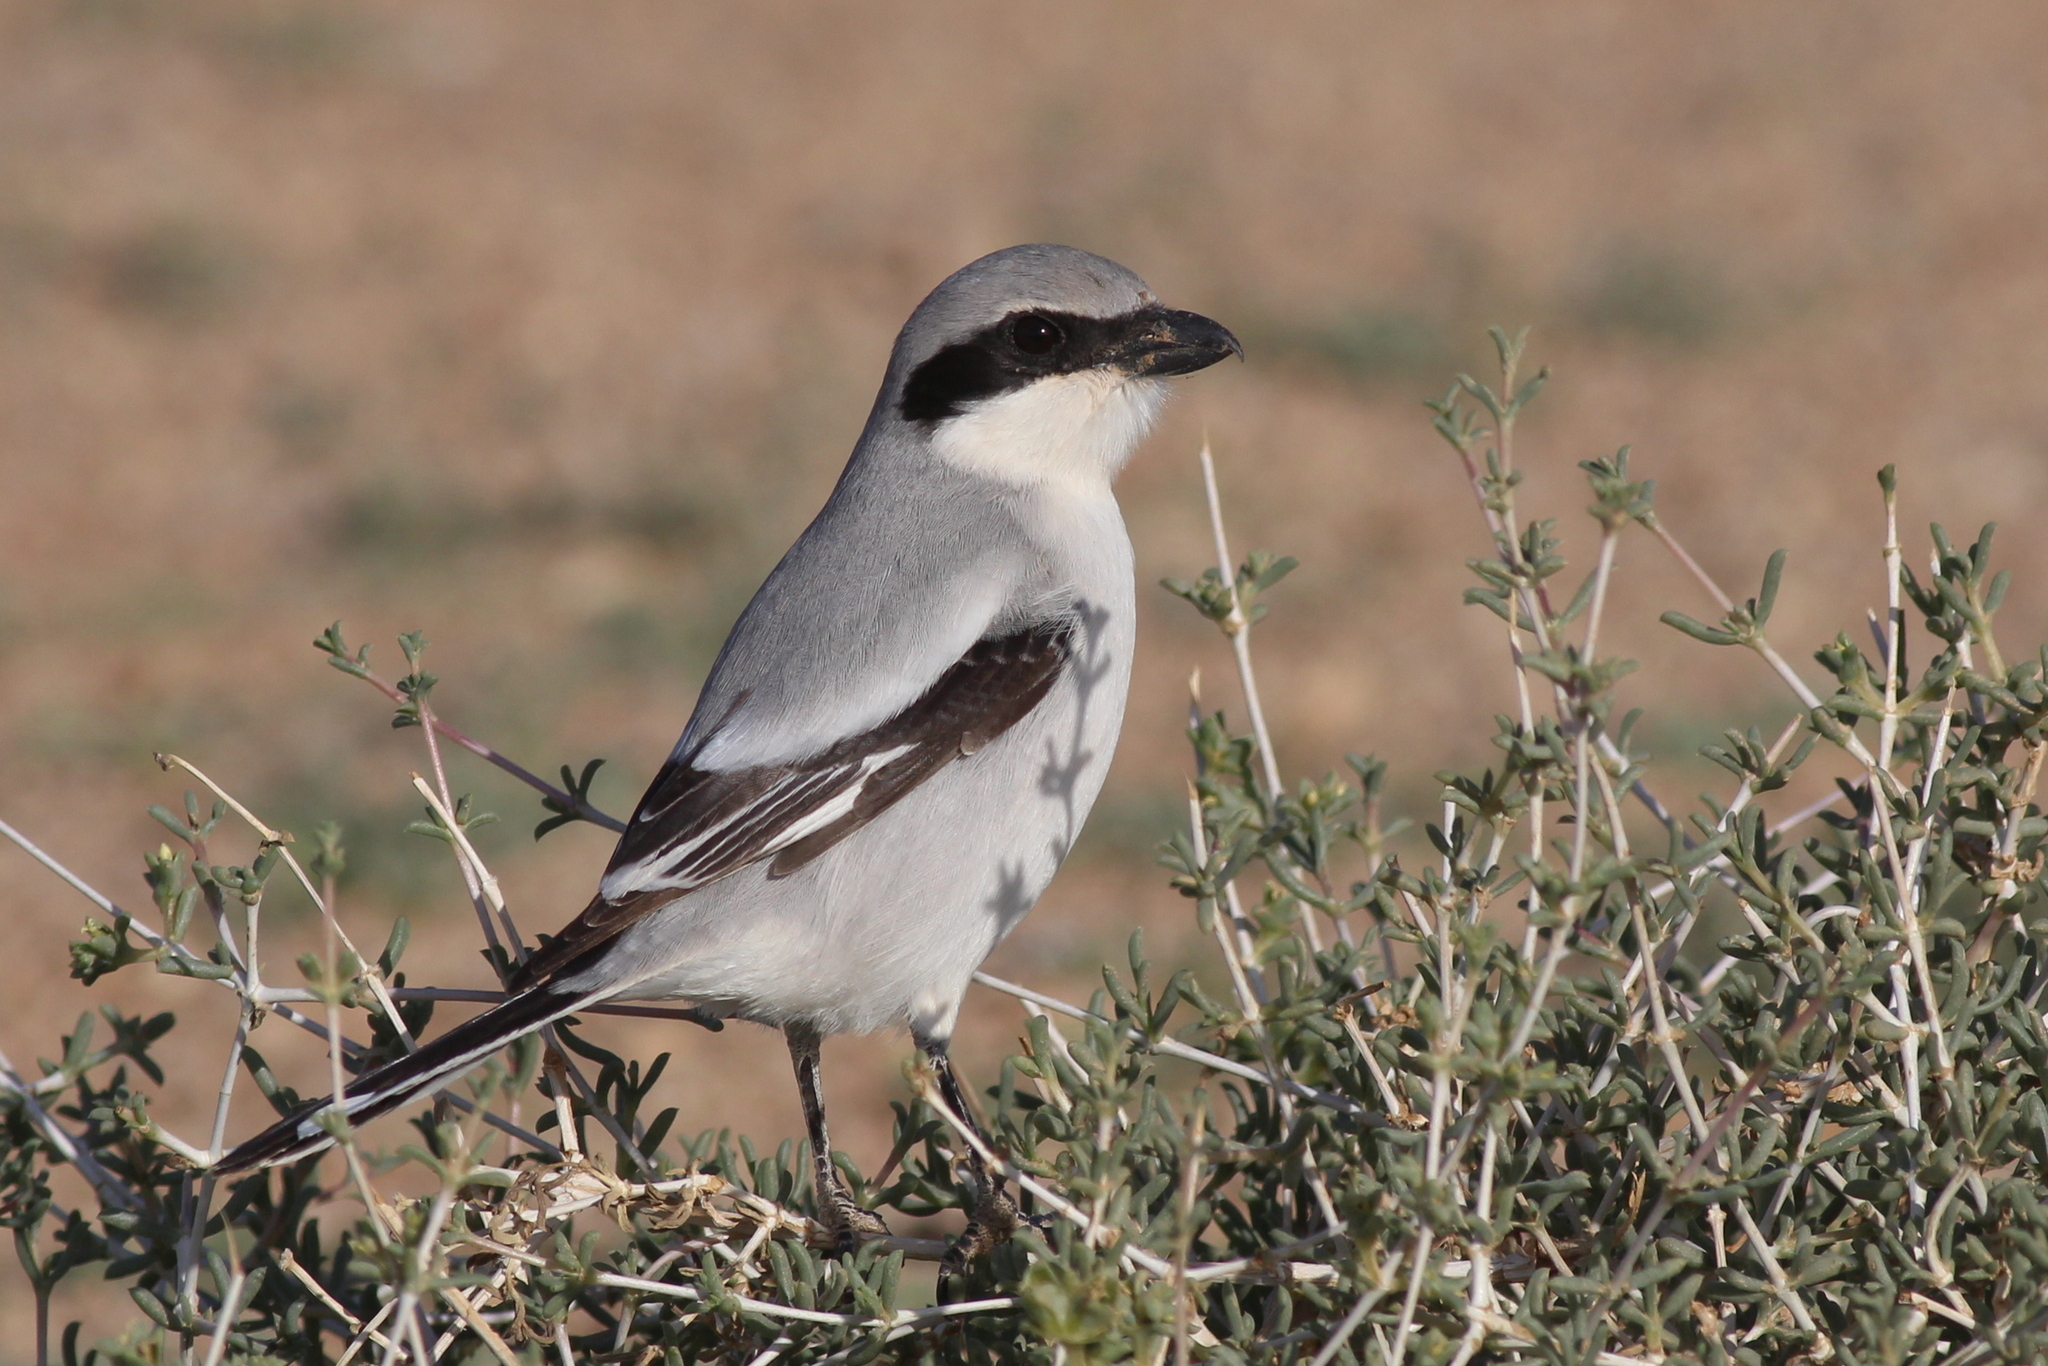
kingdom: Animalia
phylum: Chordata
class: Aves
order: Passeriformes
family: Laniidae
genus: Lanius
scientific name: Lanius excubitor
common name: Great grey shrike
